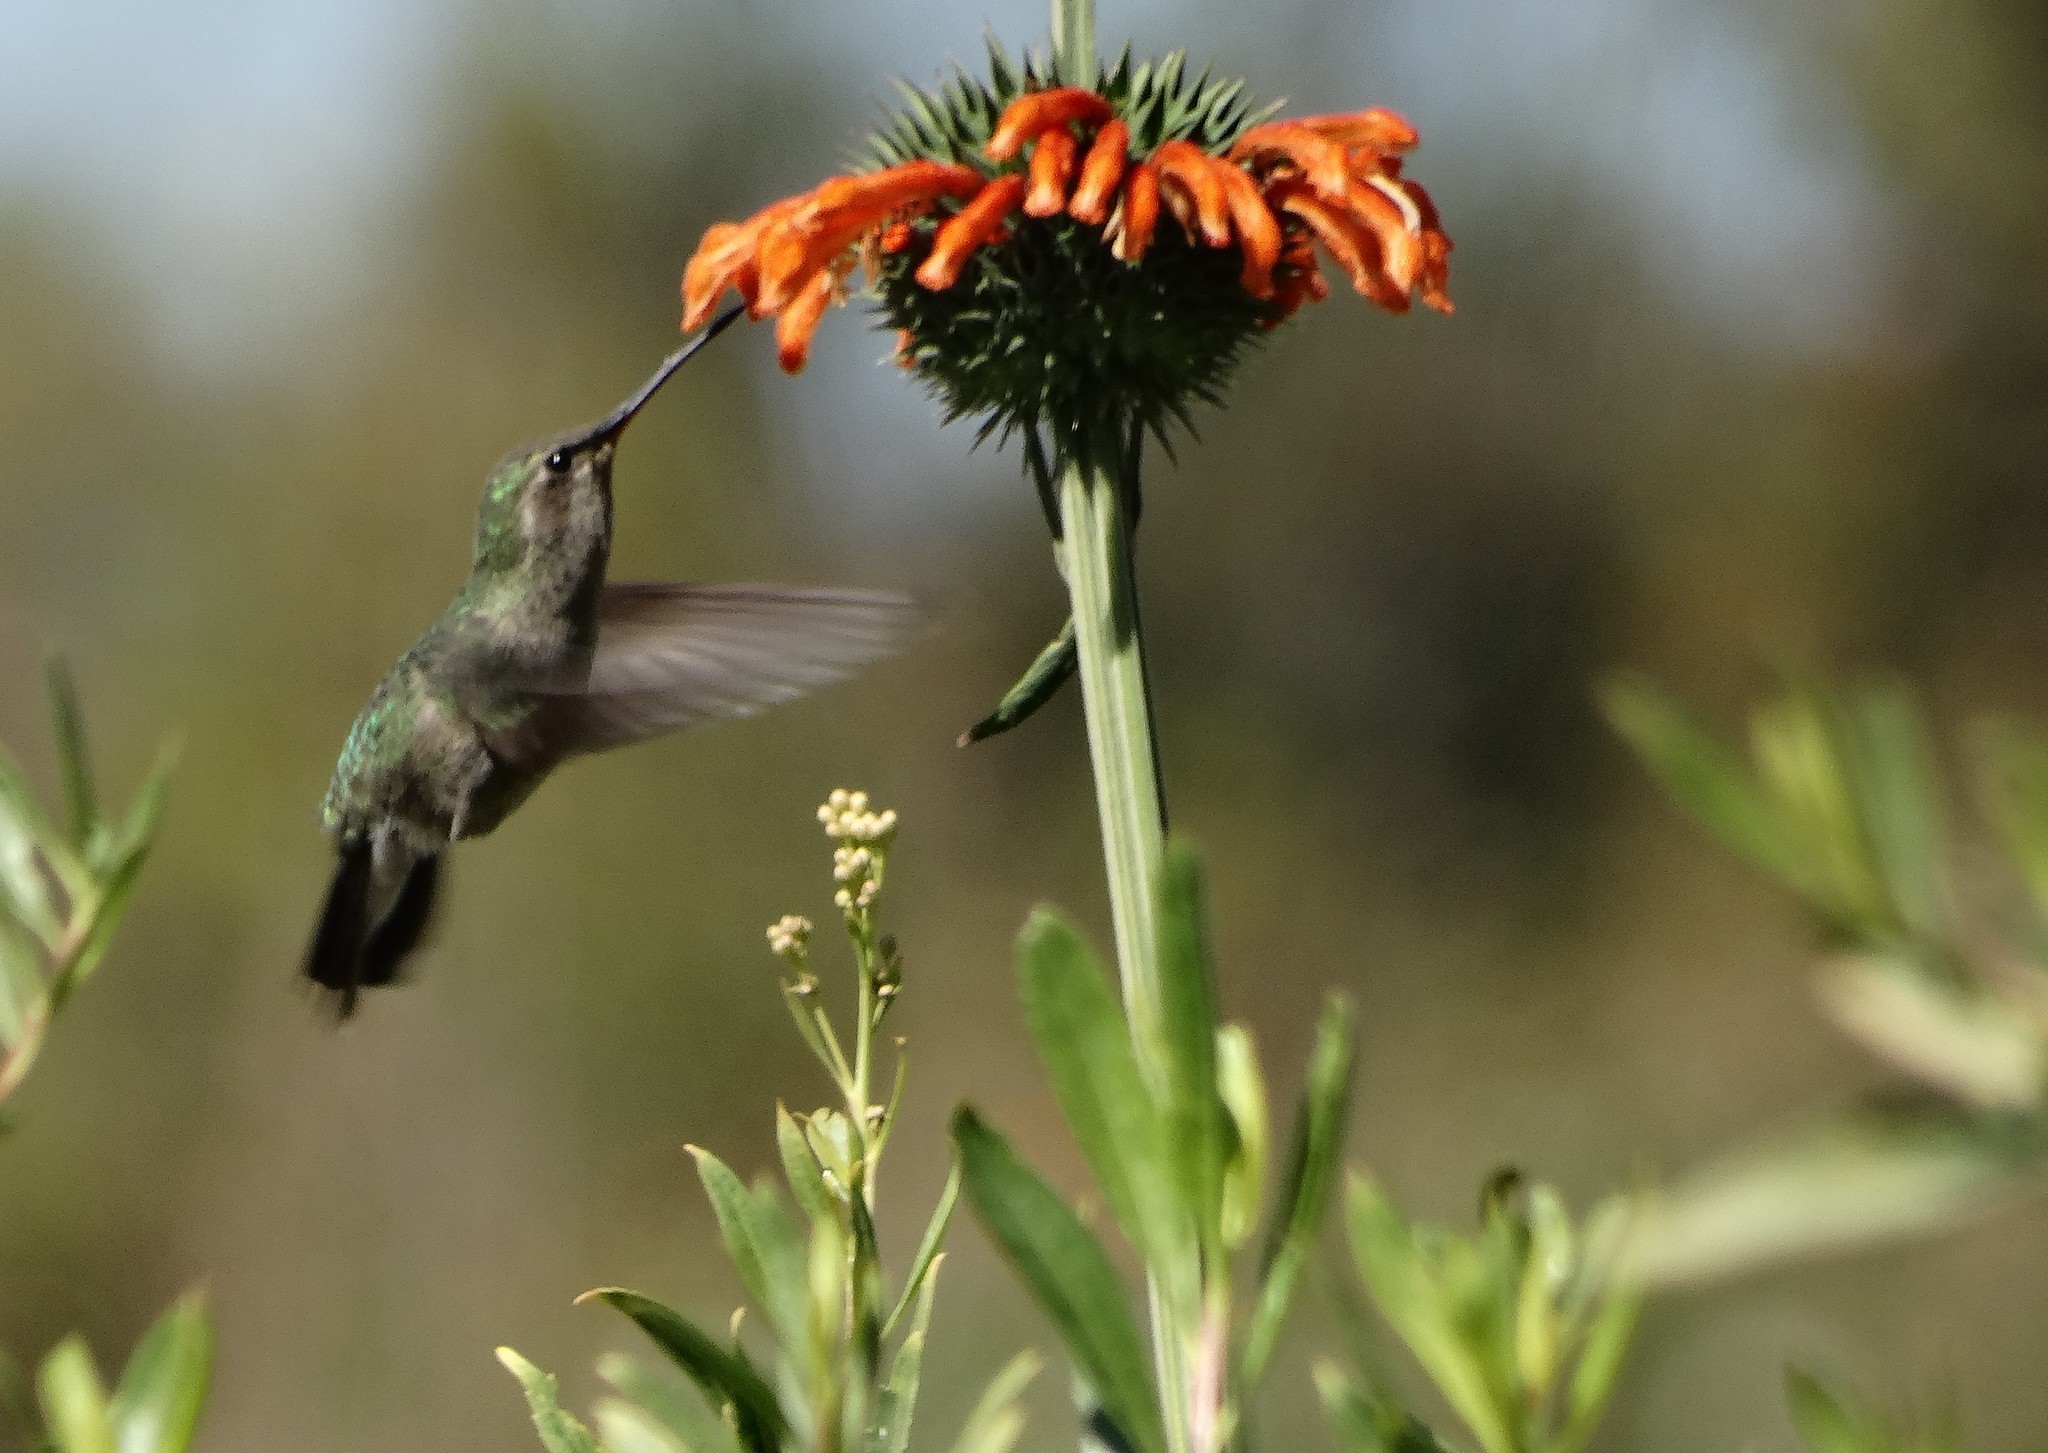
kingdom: Animalia
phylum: Chordata
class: Aves
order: Apodiformes
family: Trochilidae
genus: Cynanthus
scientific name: Cynanthus latirostris
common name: Broad-billed hummingbird
